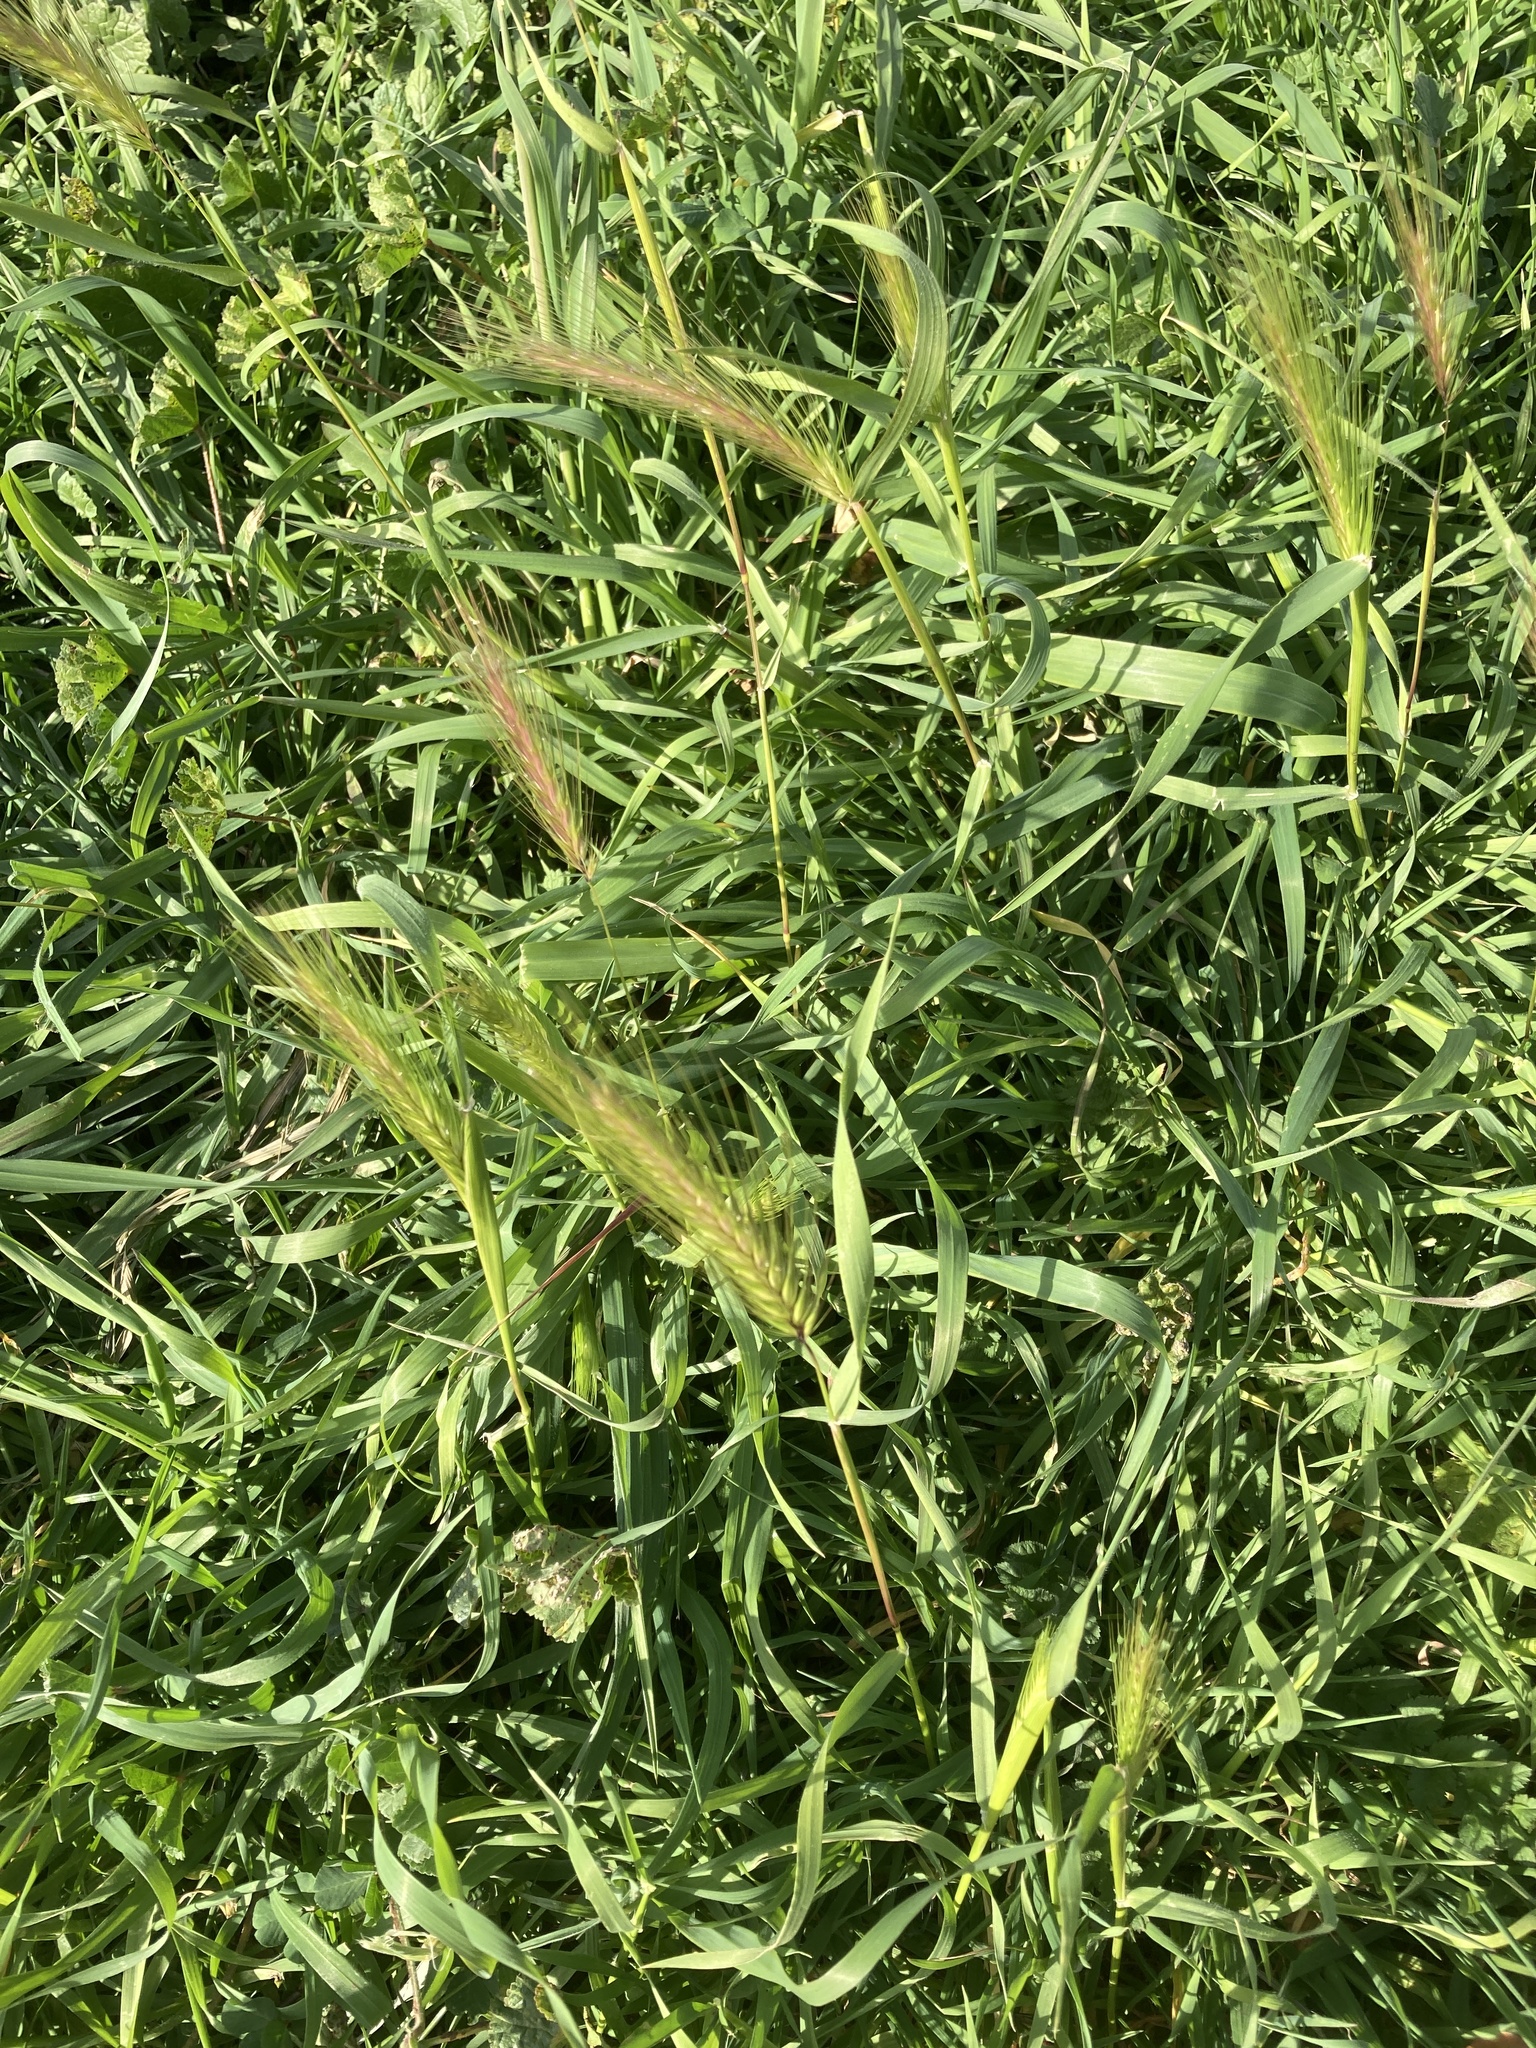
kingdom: Plantae
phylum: Tracheophyta
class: Liliopsida
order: Poales
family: Poaceae
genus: Hordeum
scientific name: Hordeum murinum
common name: Wall barley
